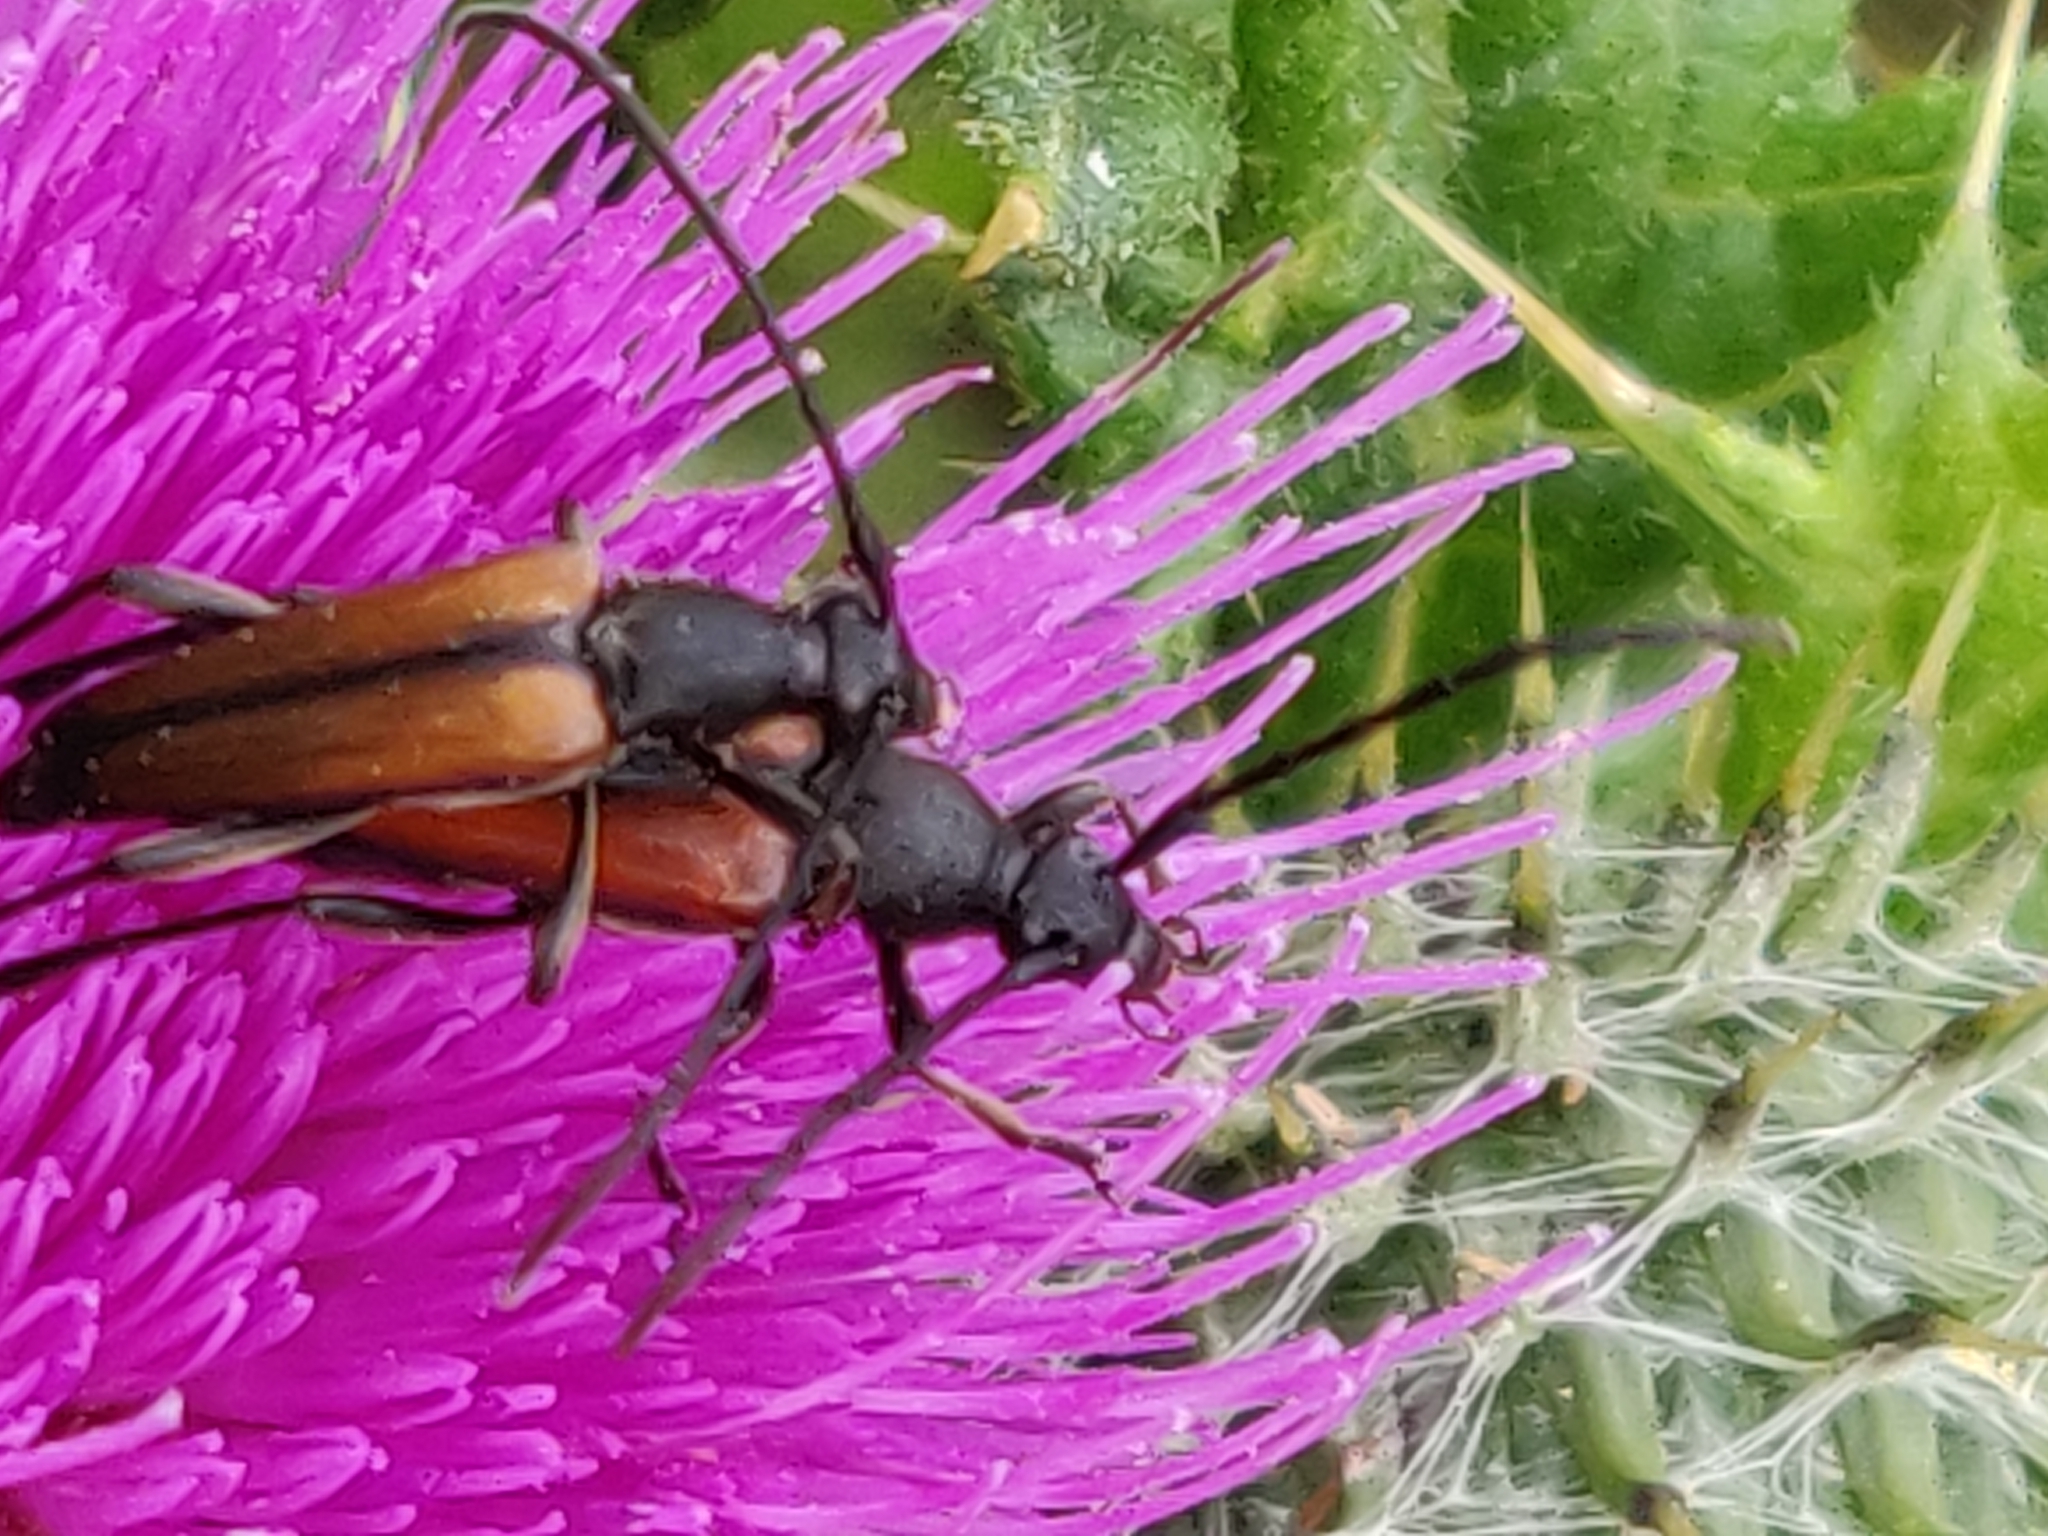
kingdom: Animalia
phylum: Arthropoda
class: Insecta
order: Coleoptera
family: Cerambycidae
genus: Stenurella
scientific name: Stenurella melanura
